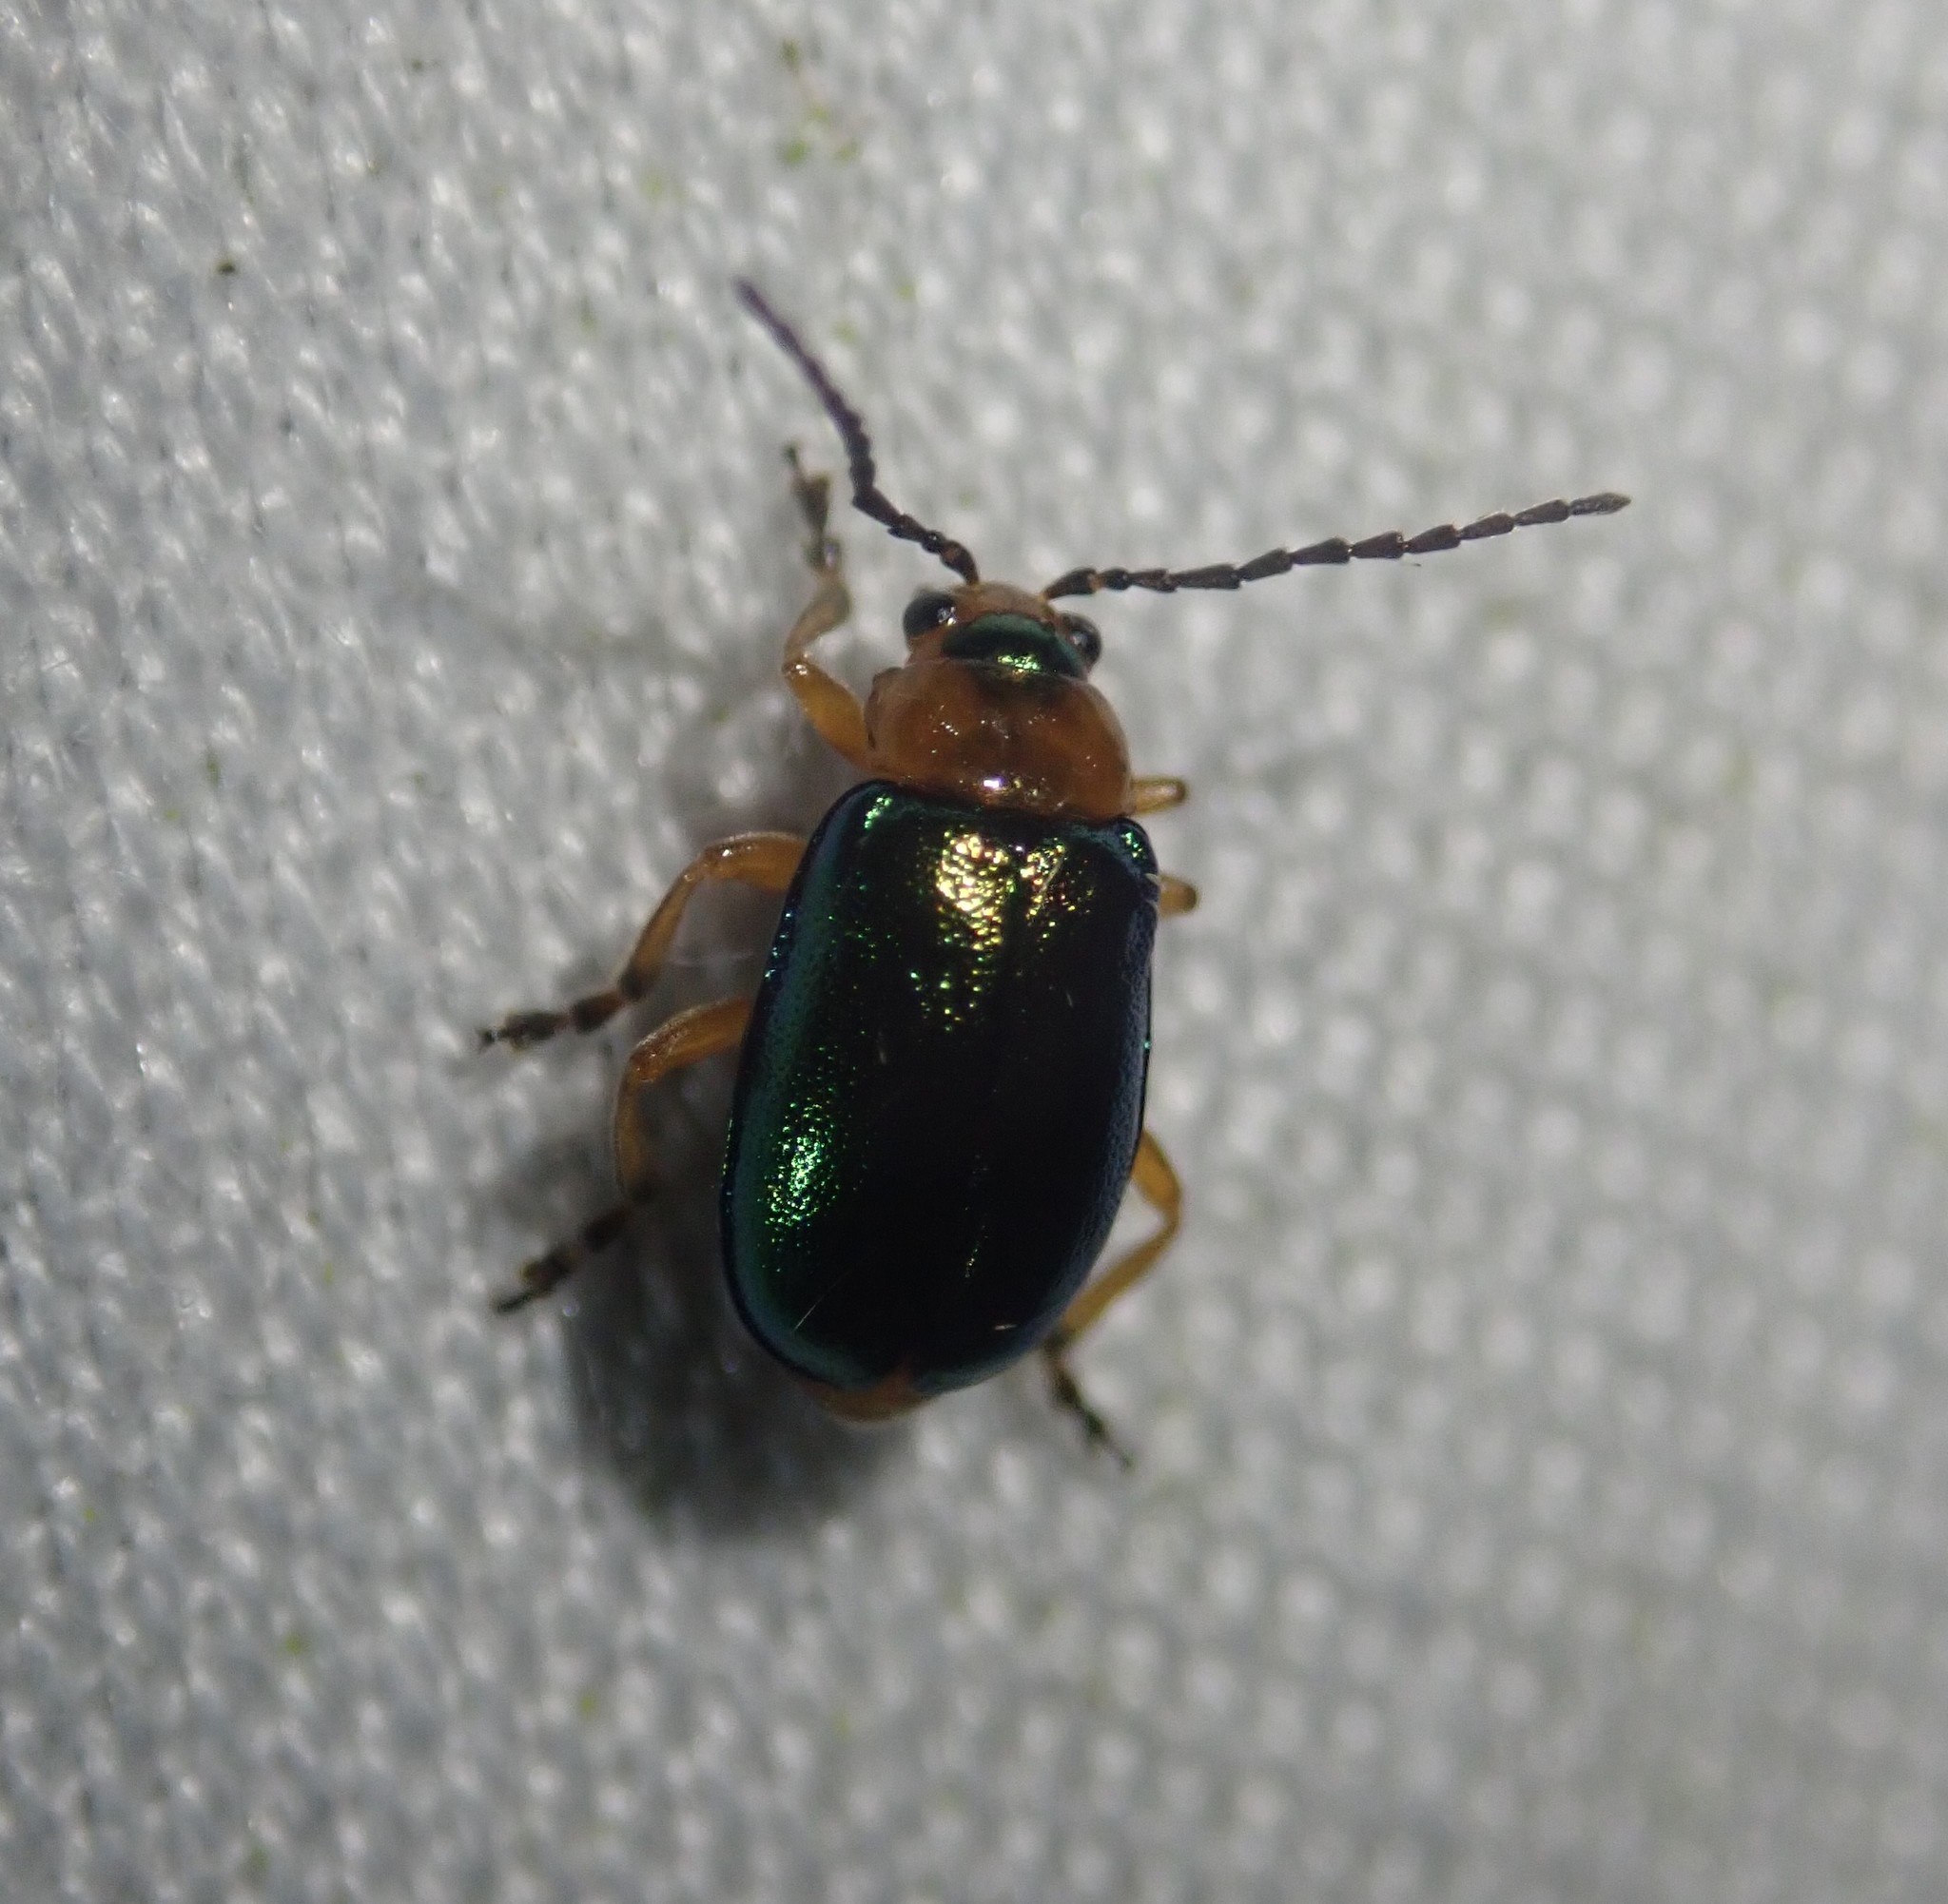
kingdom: Animalia
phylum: Arthropoda
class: Insecta
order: Coleoptera
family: Chrysomelidae
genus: Sermylassa
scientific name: Sermylassa halensis
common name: Leaf beetle
